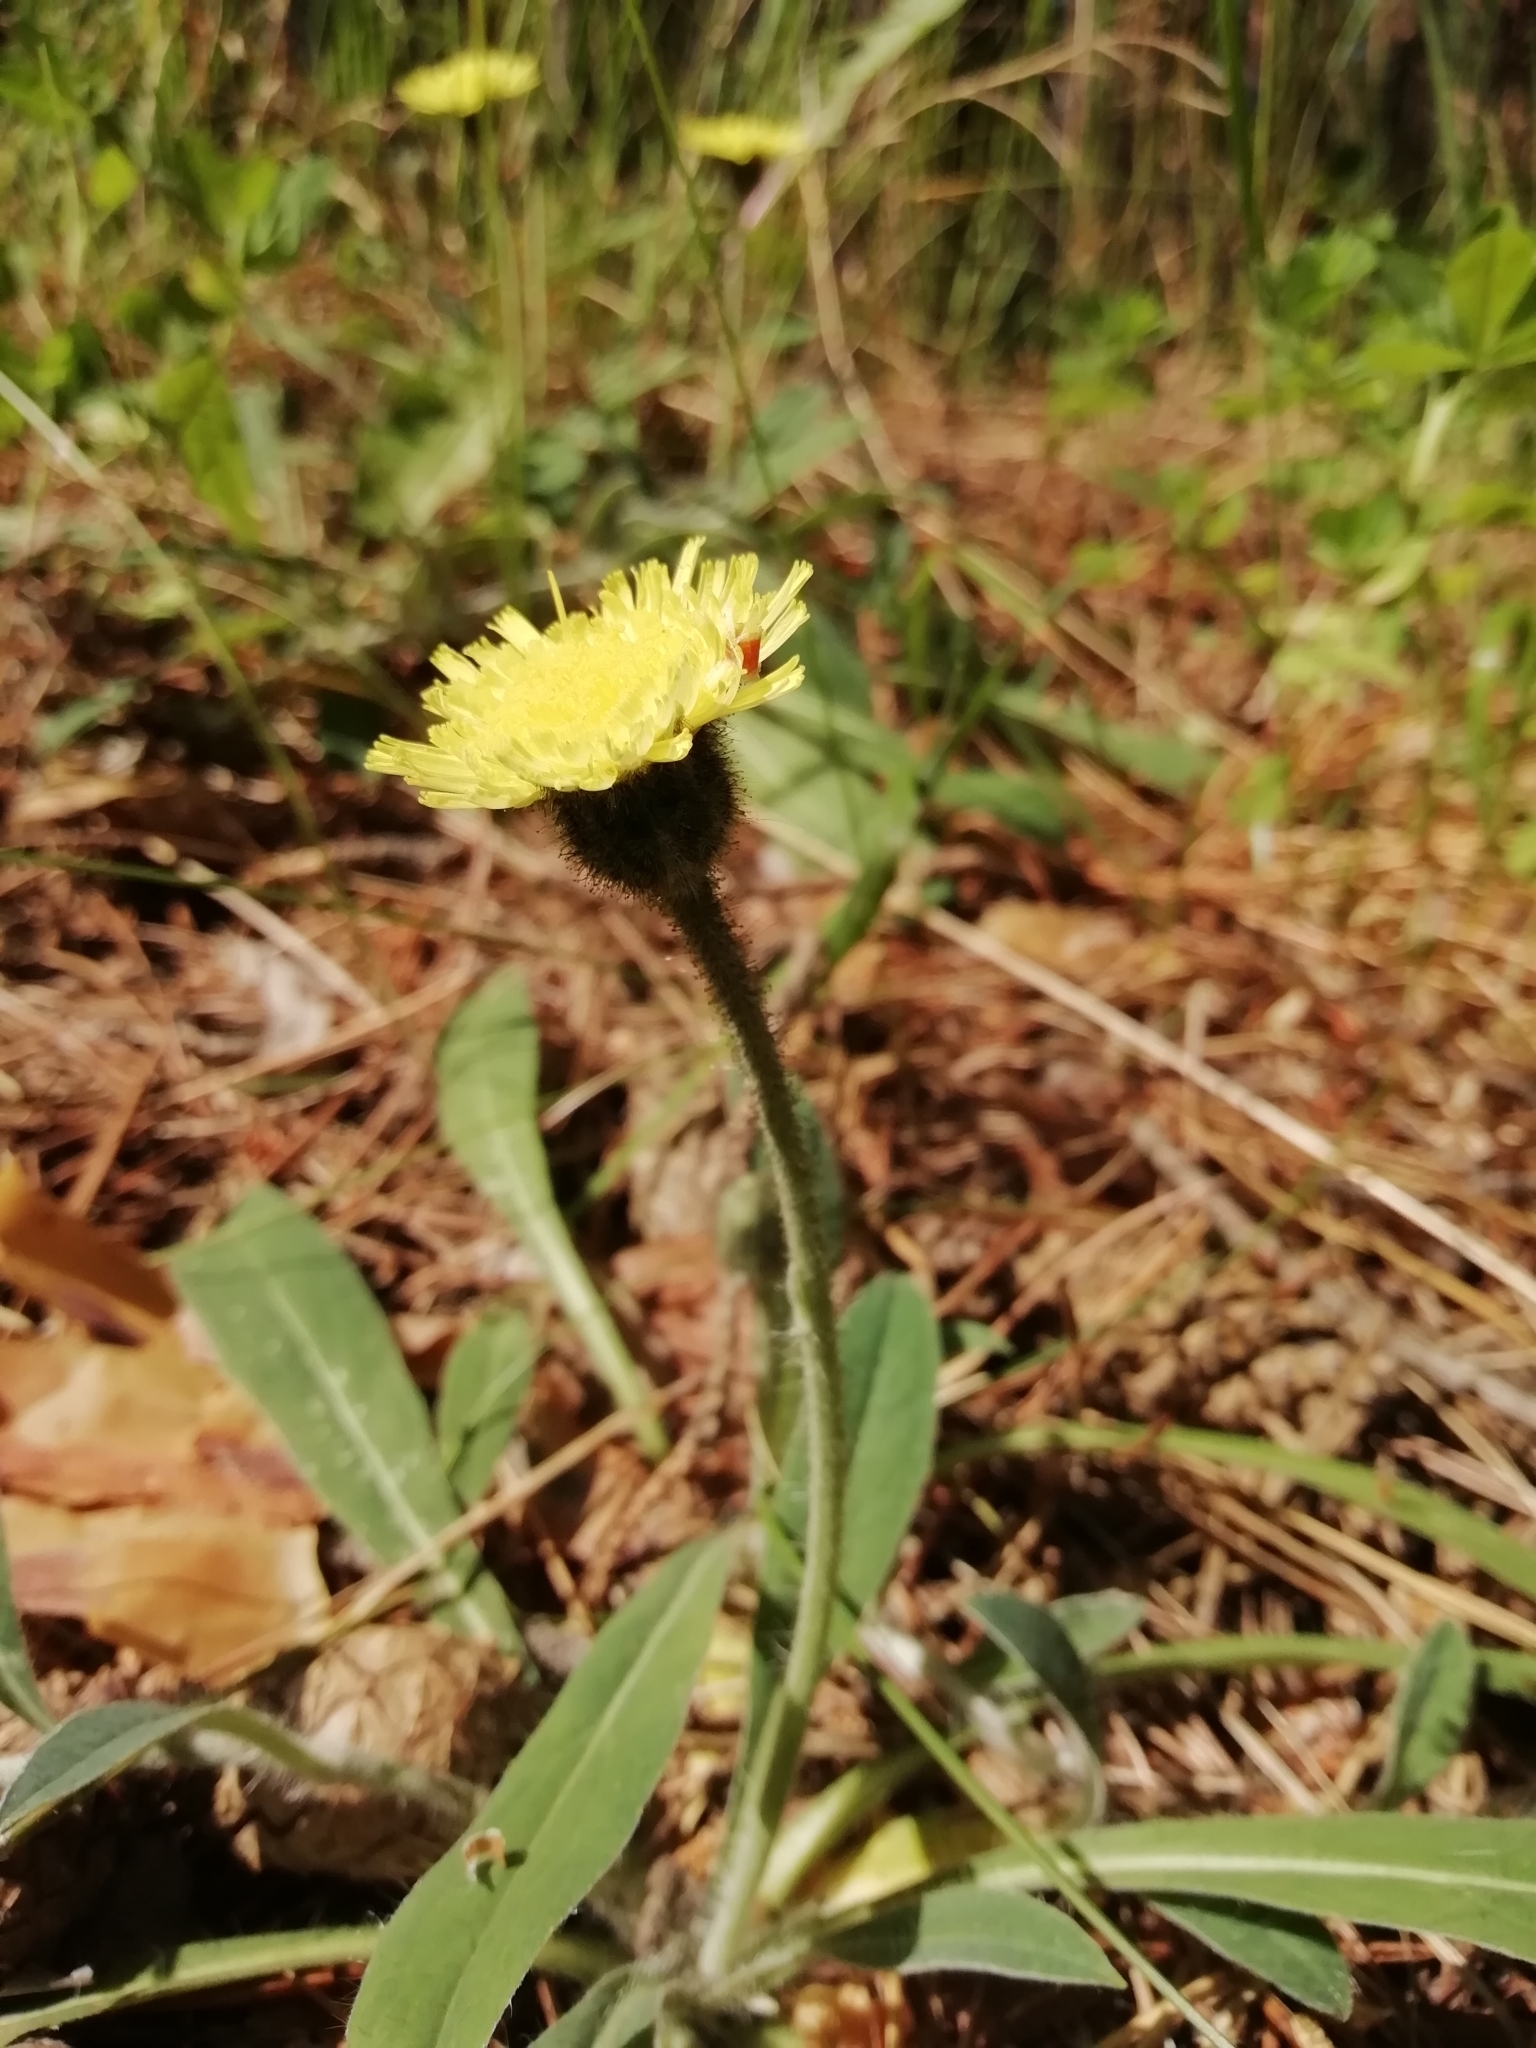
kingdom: Plantae
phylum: Tracheophyta
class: Magnoliopsida
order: Asterales
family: Asteraceae
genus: Pilosella
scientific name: Pilosella officinarum
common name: Mouse-ear hawkweed
